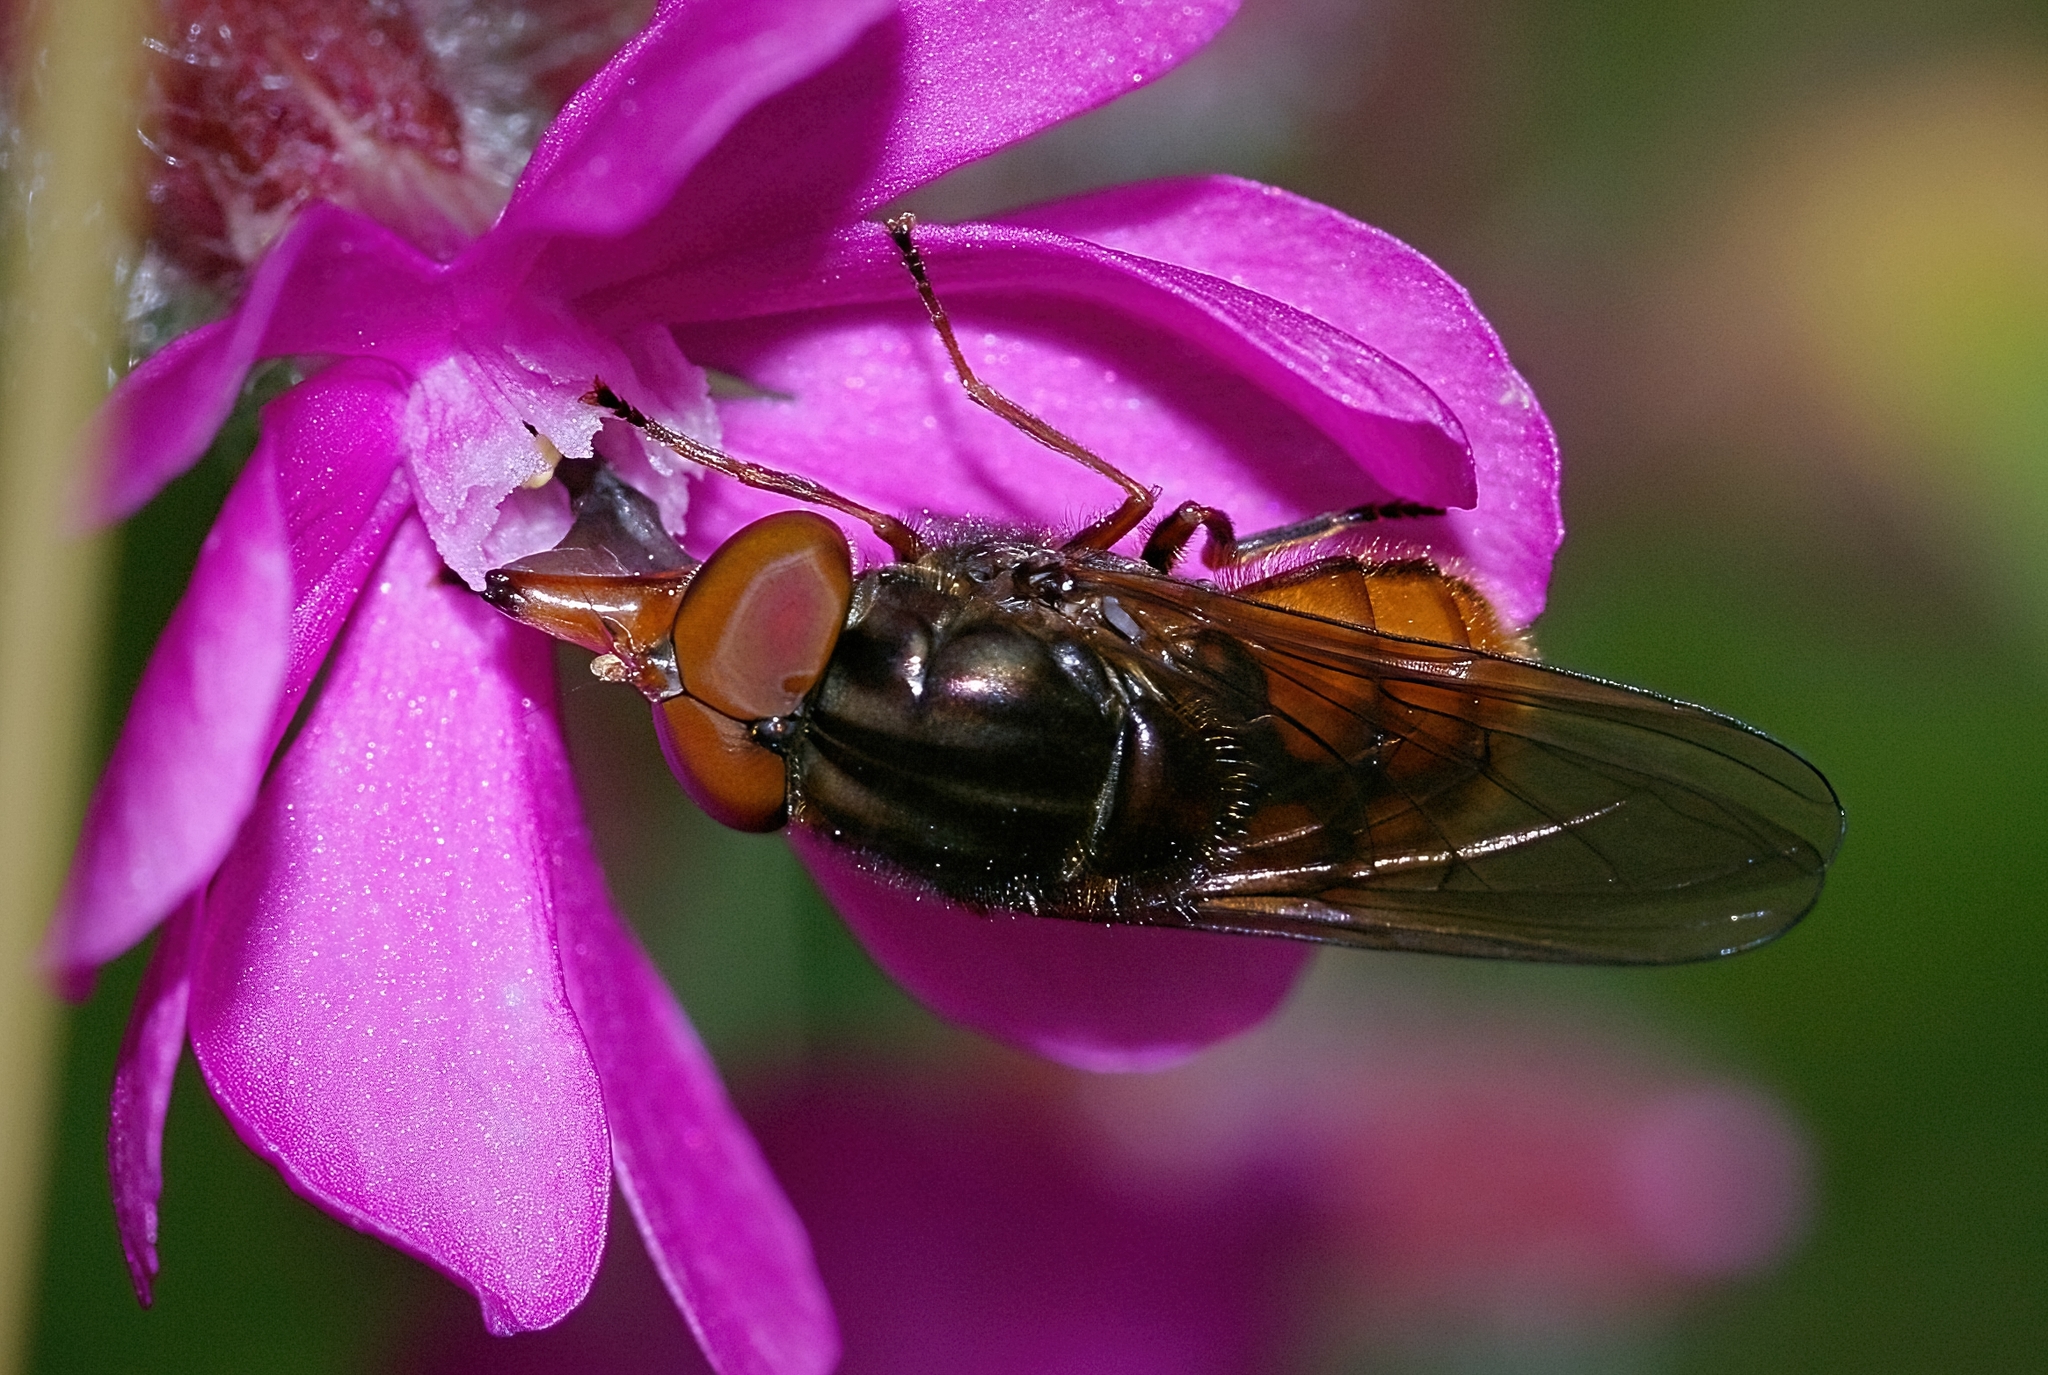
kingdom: Animalia
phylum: Arthropoda
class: Insecta
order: Diptera
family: Syrphidae
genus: Rhingia
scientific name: Rhingia campestris
